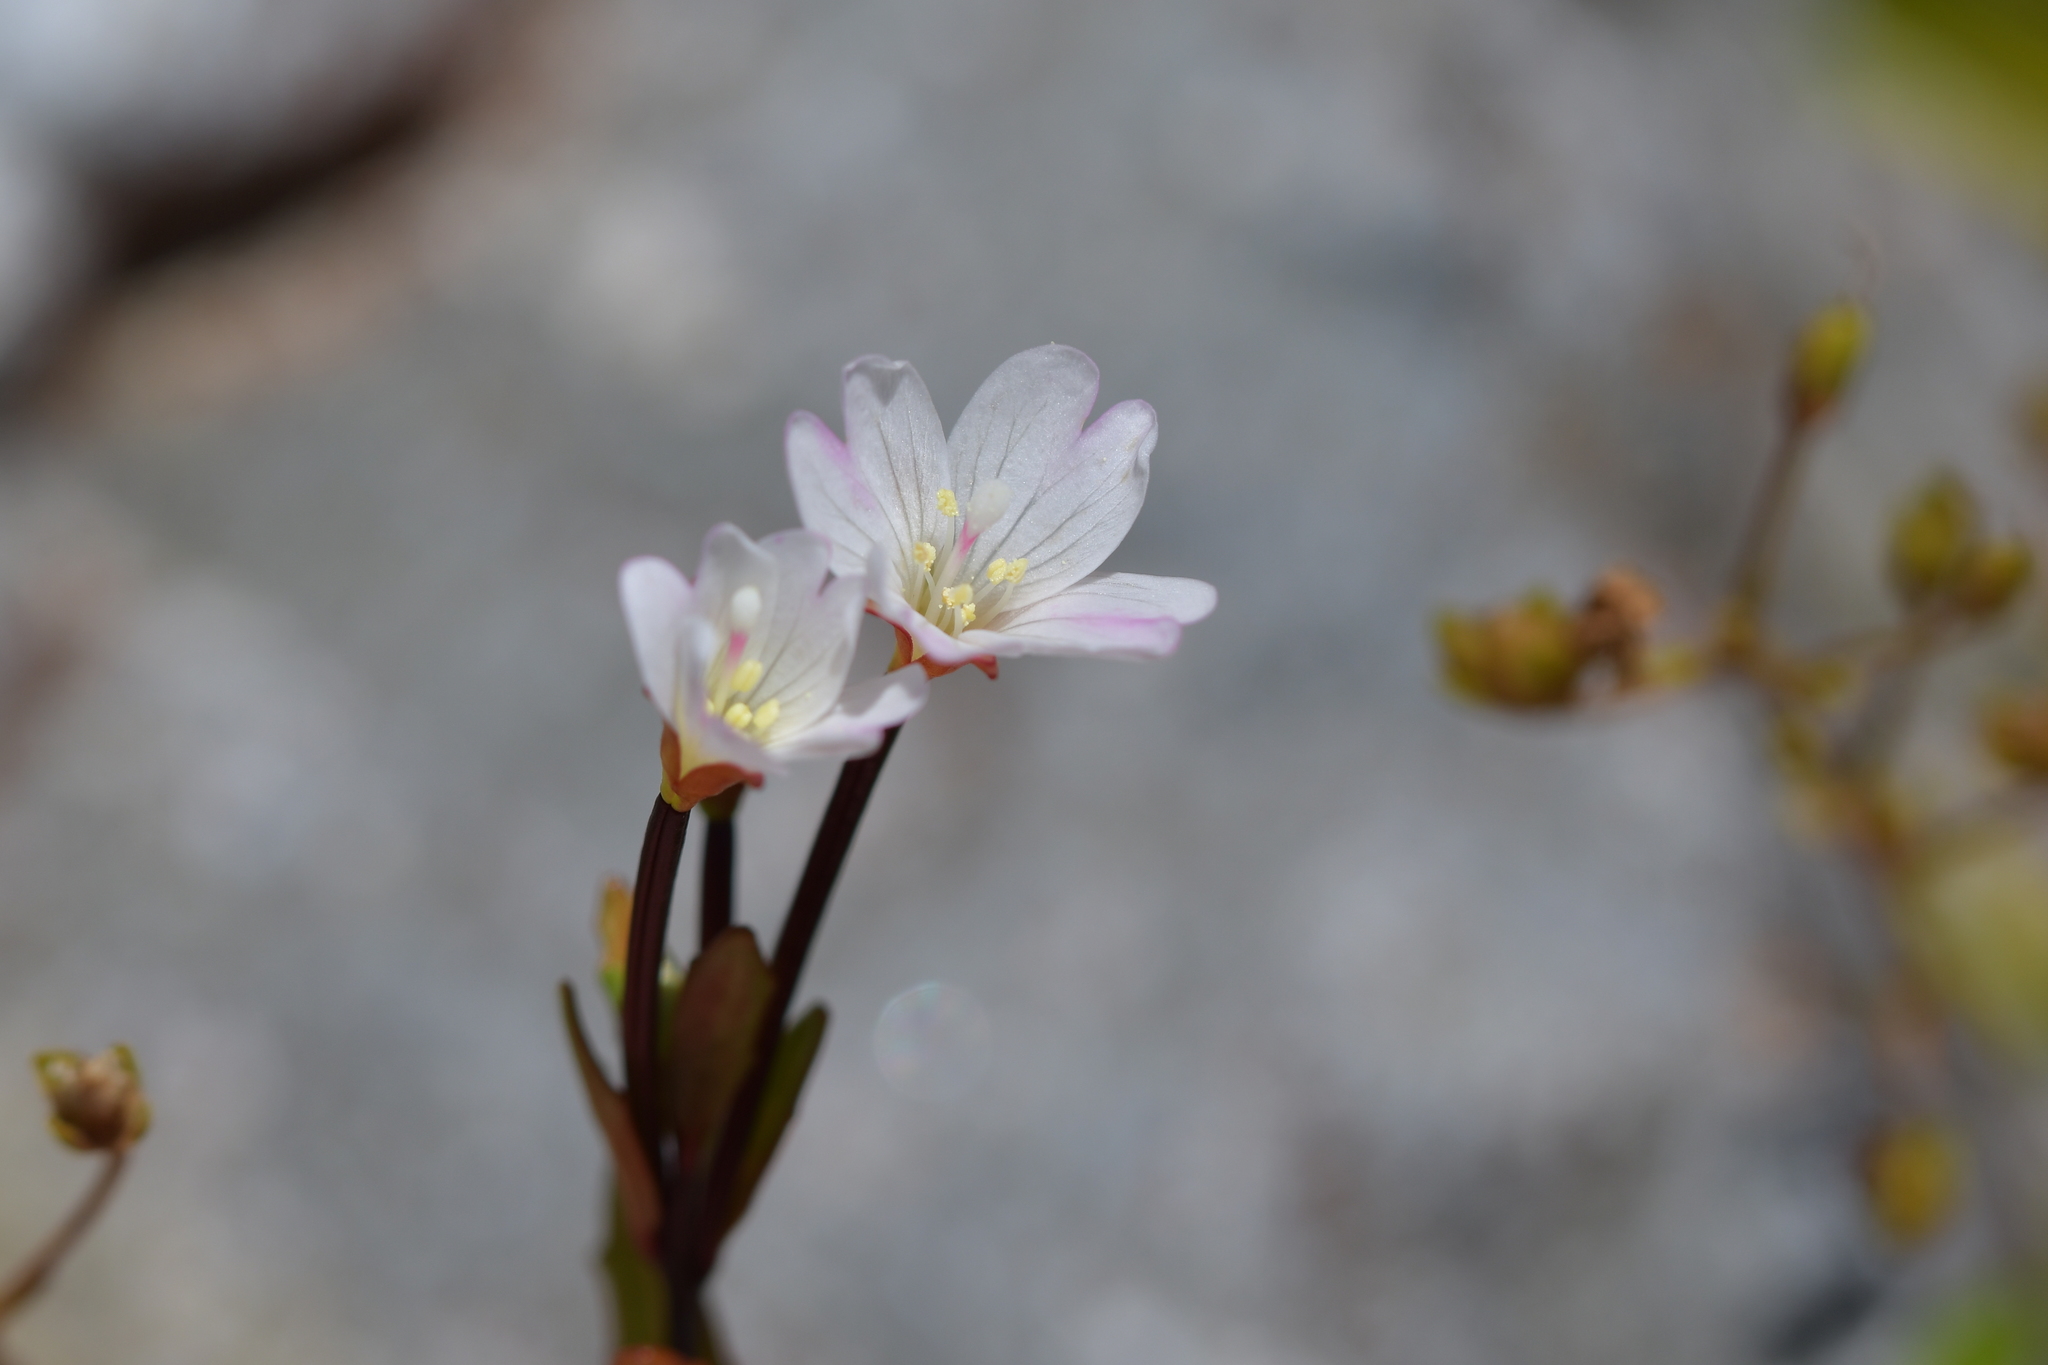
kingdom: Plantae
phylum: Tracheophyta
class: Magnoliopsida
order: Myrtales
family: Onagraceae
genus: Epilobium
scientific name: Epilobium glabellum
